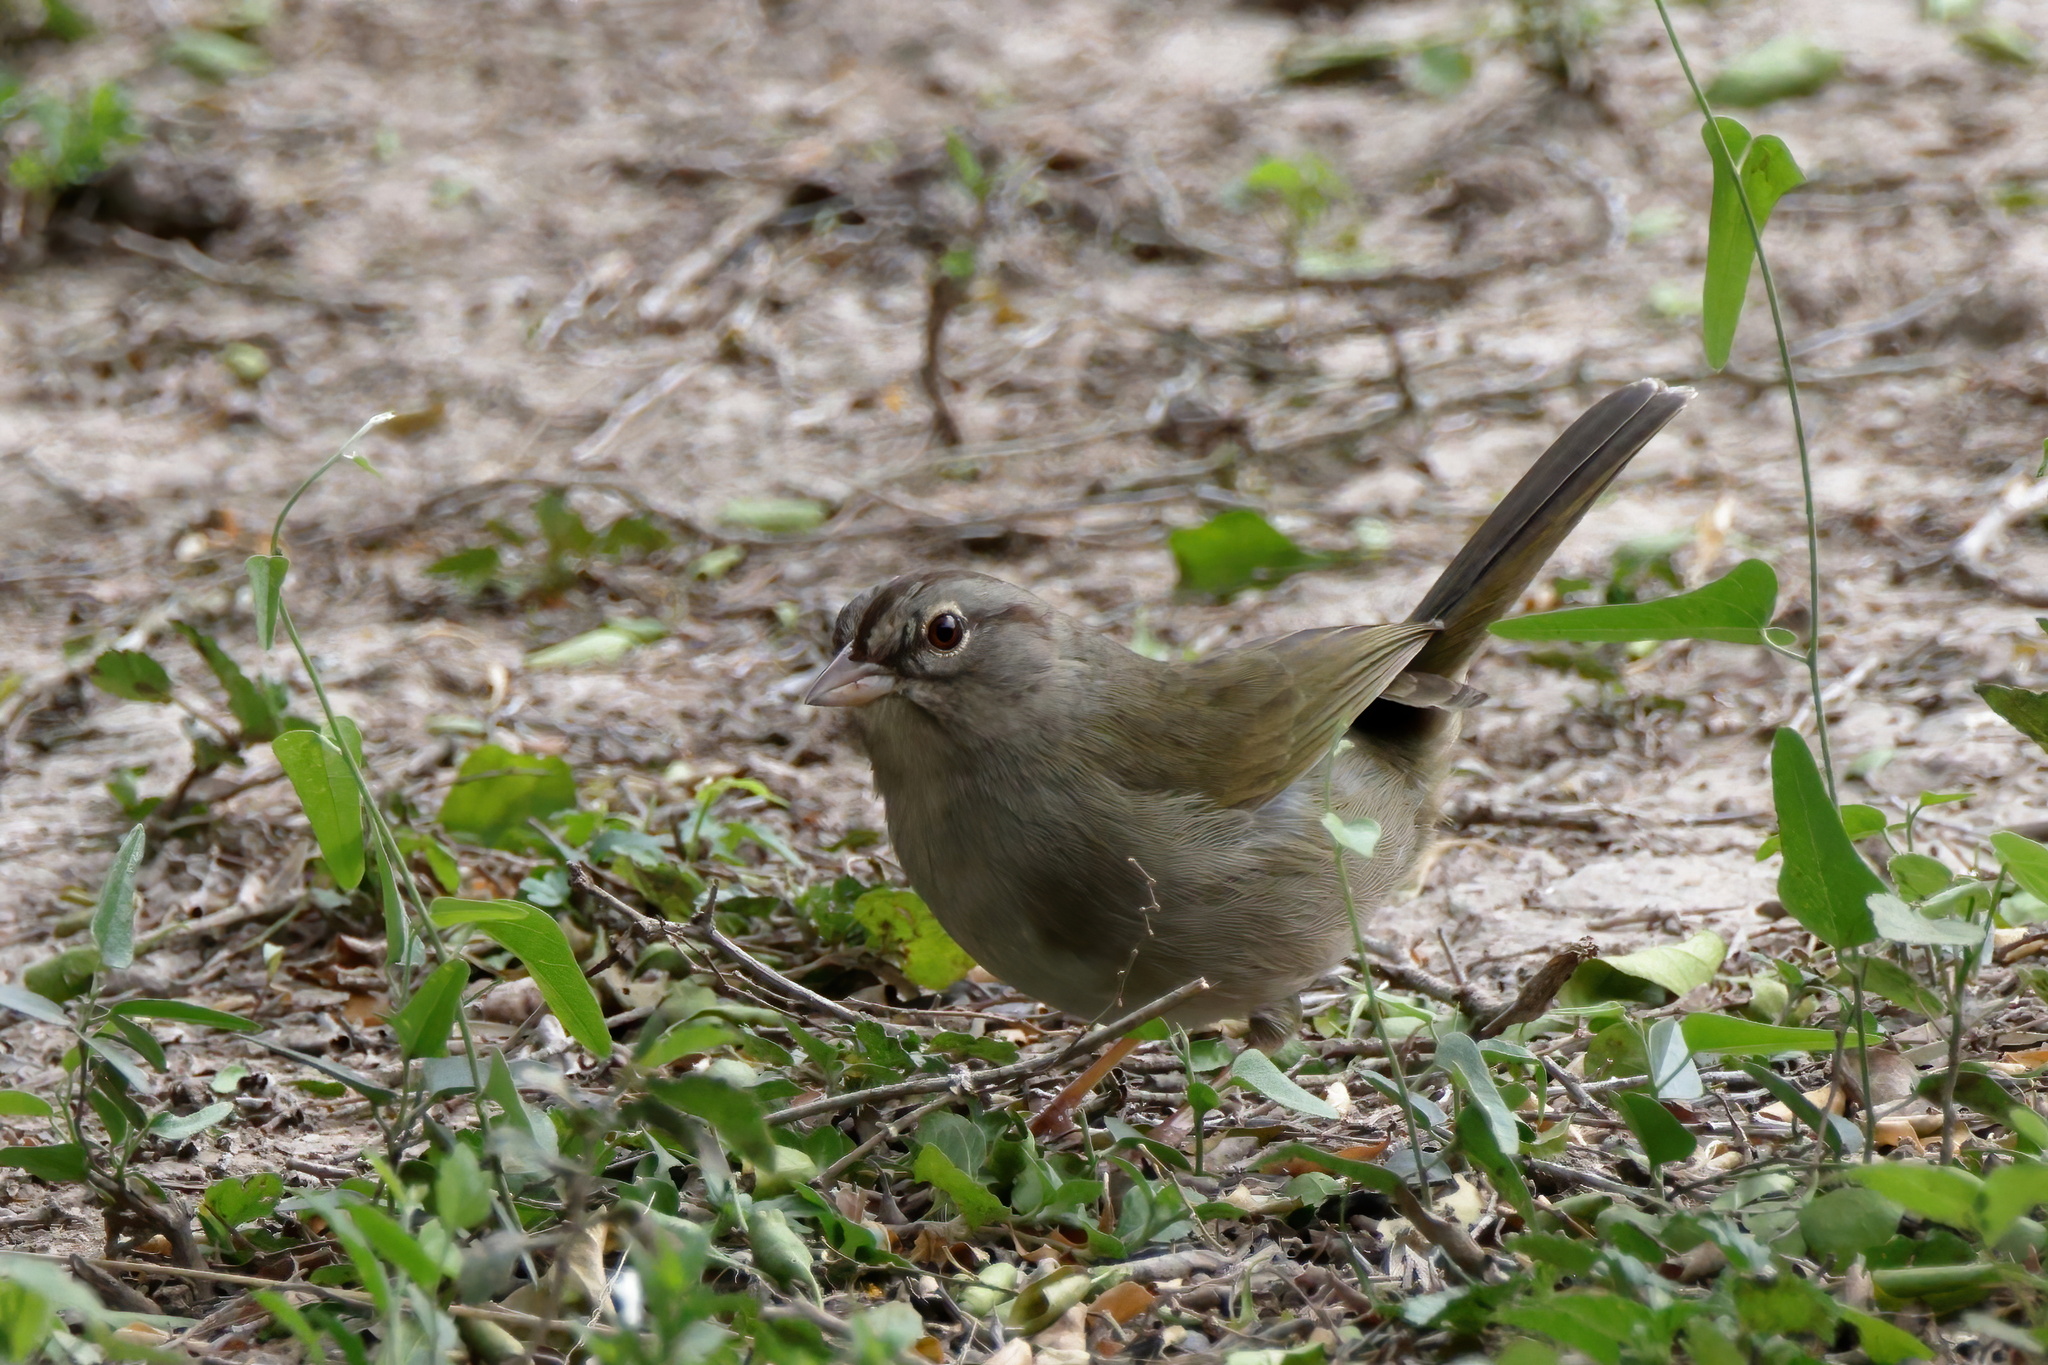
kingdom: Animalia
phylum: Chordata
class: Aves
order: Passeriformes
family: Passerellidae
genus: Arremonops
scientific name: Arremonops rufivirgatus
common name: Olive sparrow
